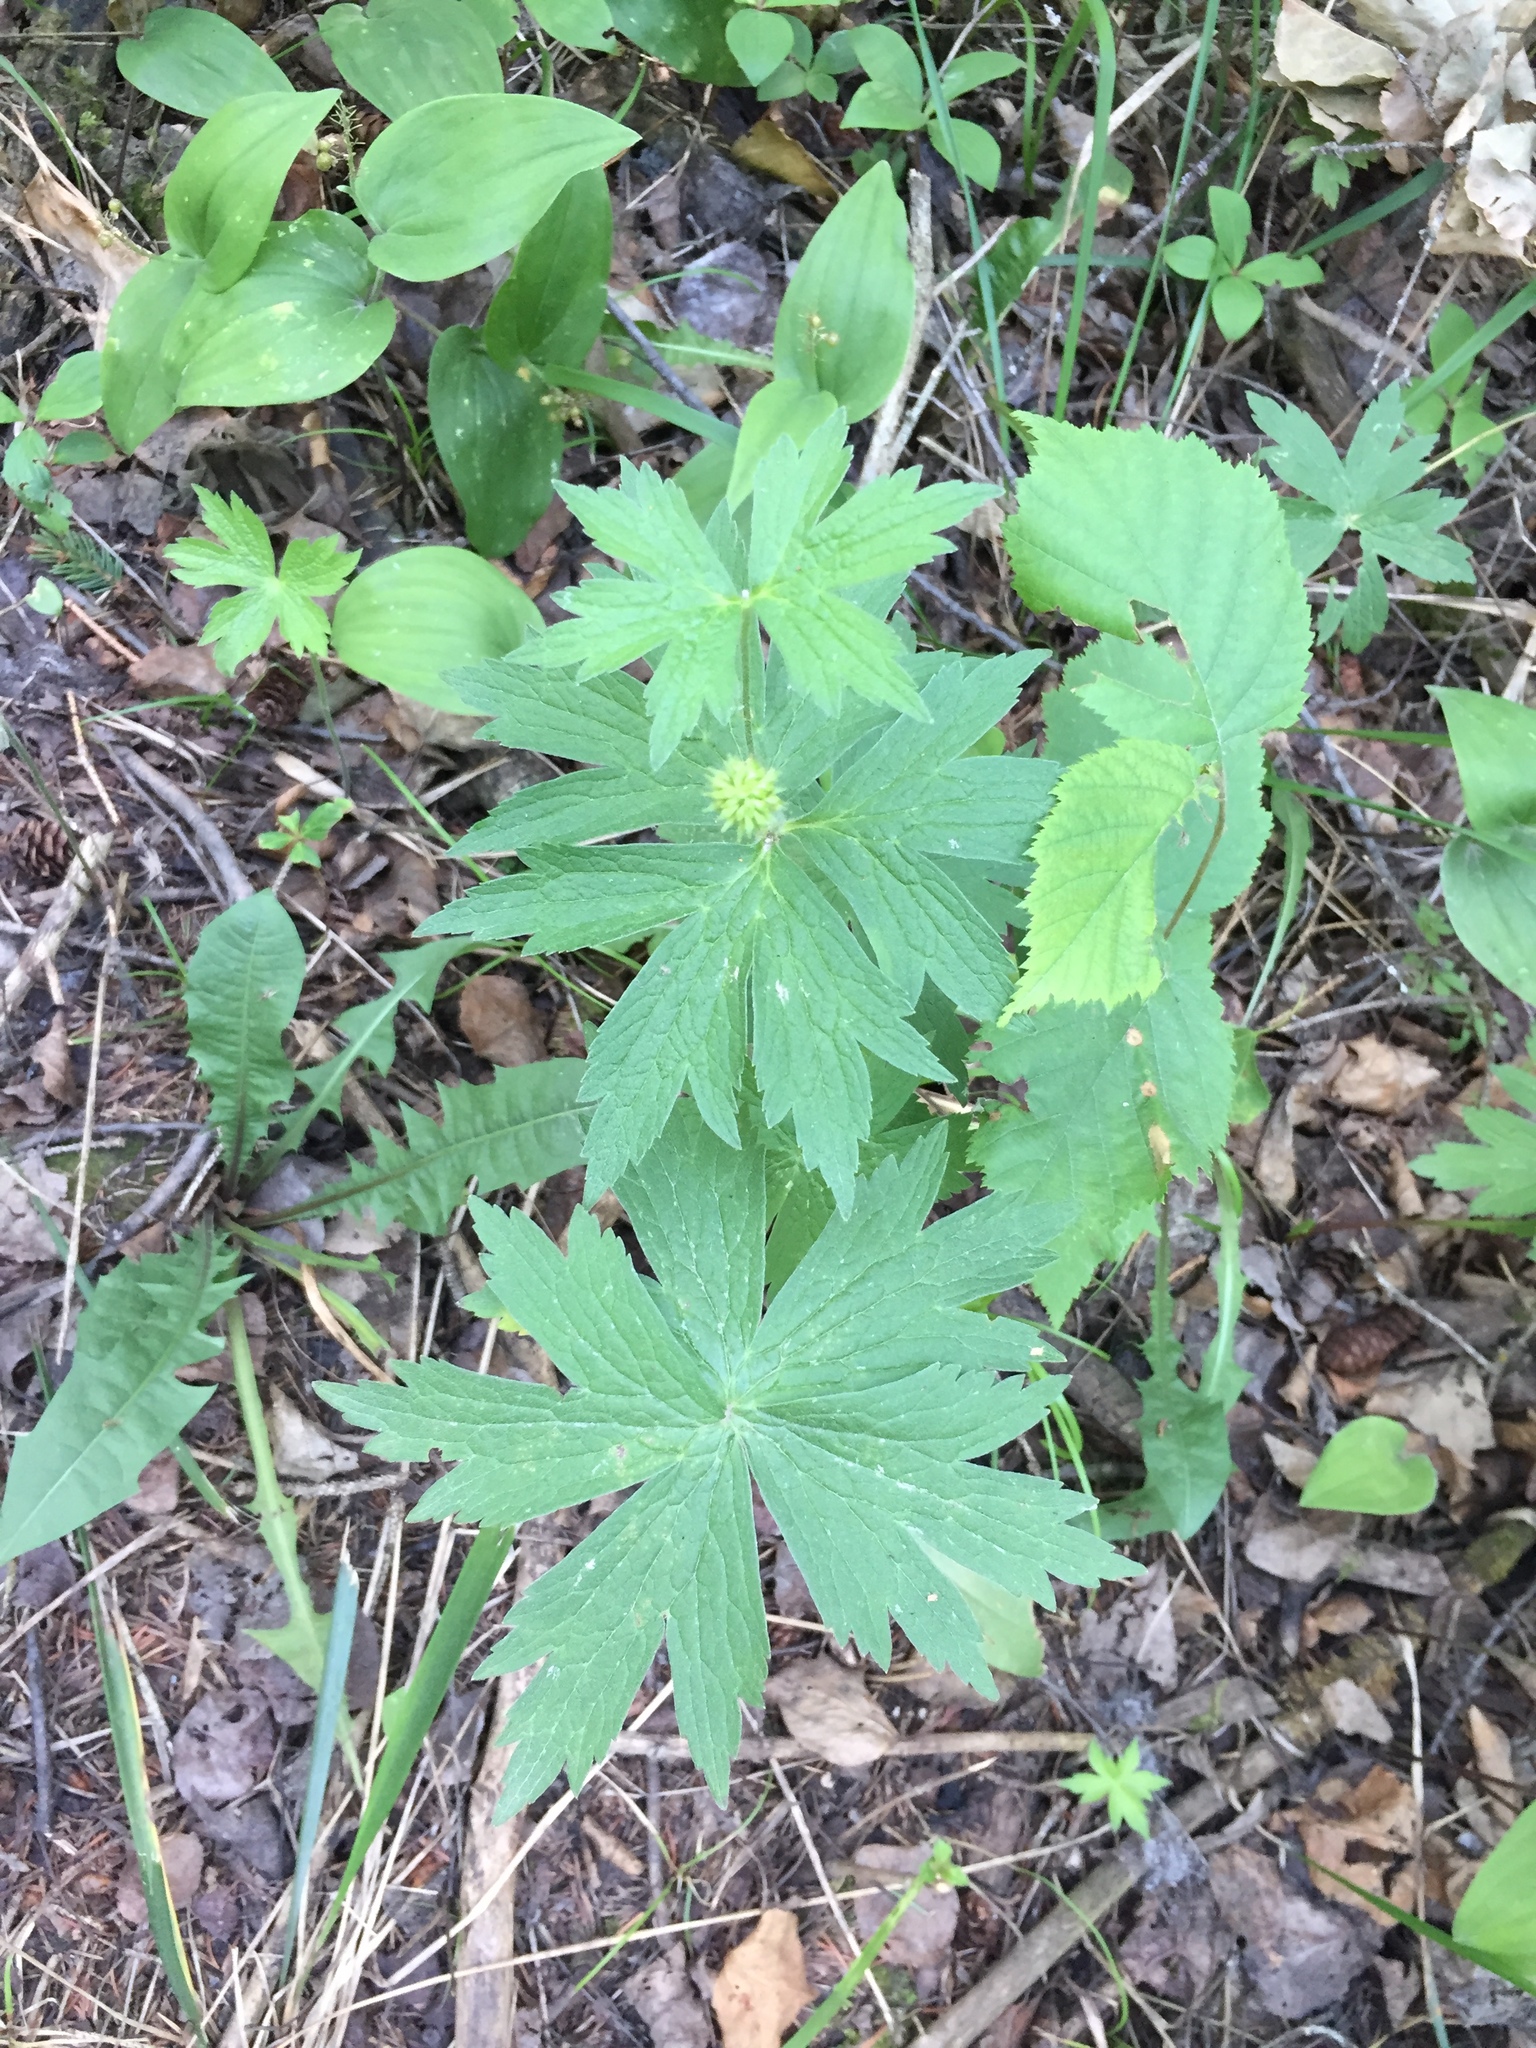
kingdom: Plantae
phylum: Tracheophyta
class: Magnoliopsida
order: Ranunculales
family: Ranunculaceae
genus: Anemonastrum
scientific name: Anemonastrum canadense
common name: Canada anemone
